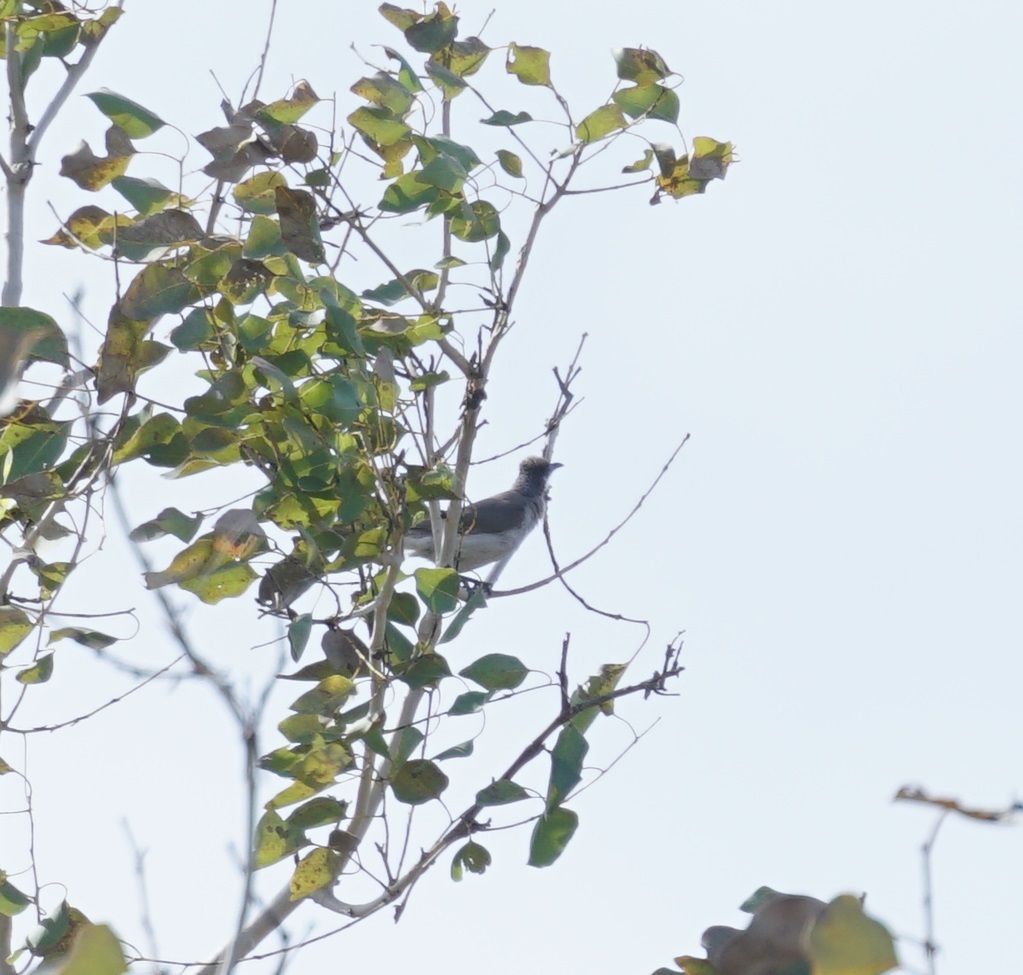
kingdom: Animalia
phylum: Chordata
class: Aves
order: Passeriformes
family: Meliphagidae
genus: Philemon
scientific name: Philemon citreogularis
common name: Little friarbird
